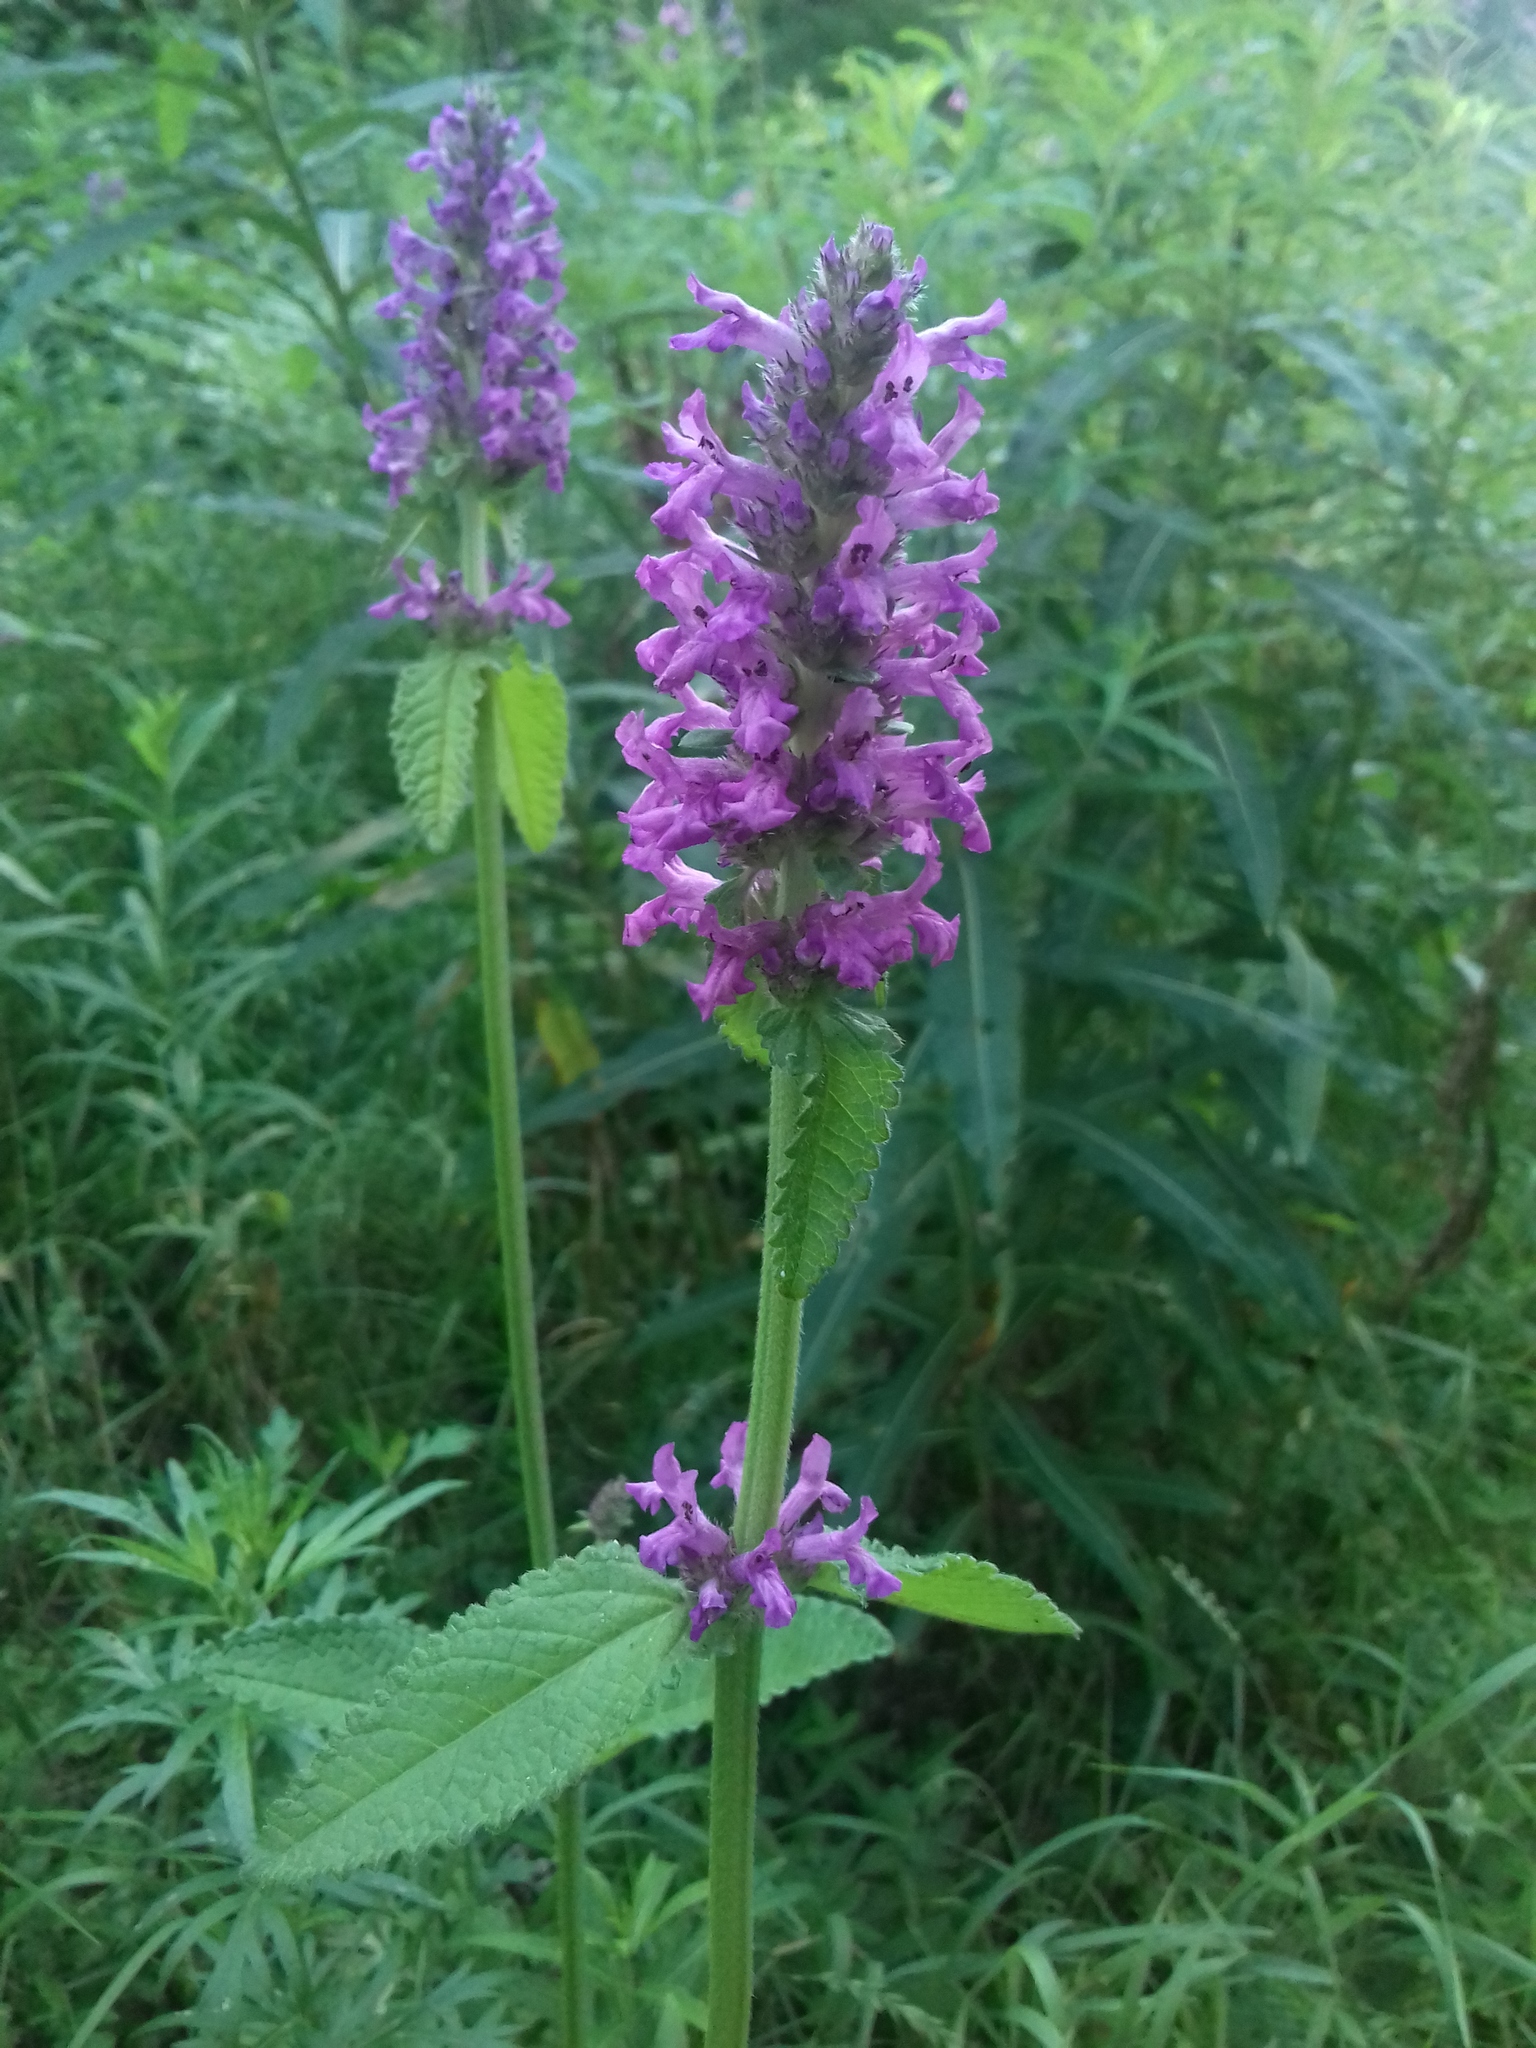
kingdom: Plantae
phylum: Tracheophyta
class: Magnoliopsida
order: Lamiales
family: Lamiaceae
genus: Betonica
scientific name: Betonica officinalis
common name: Bishop's-wort
